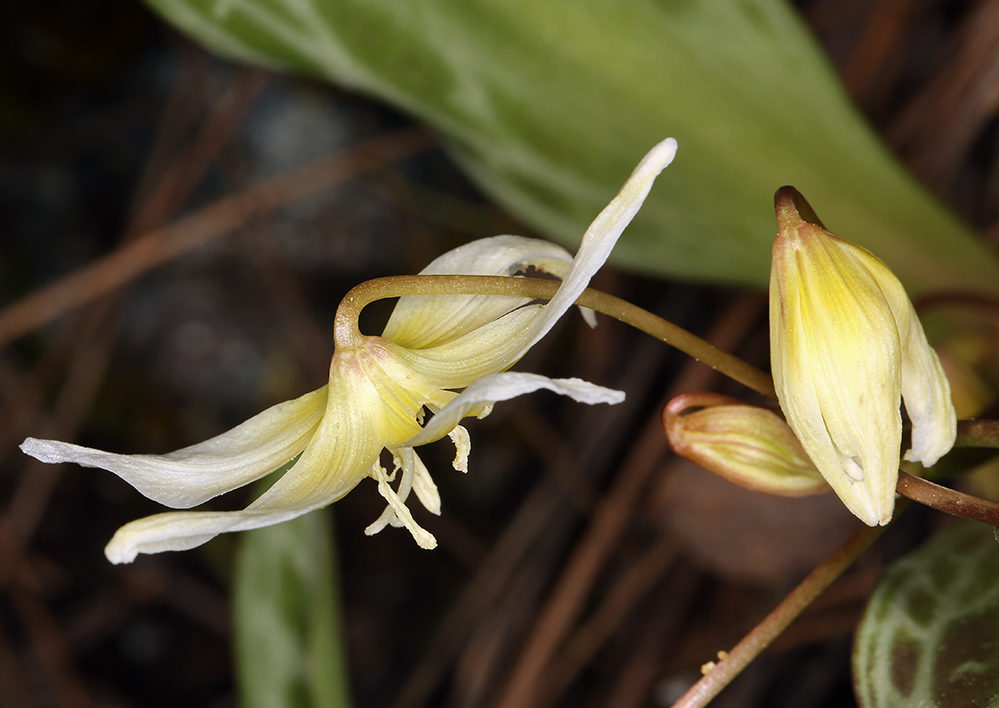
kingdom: Plantae
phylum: Tracheophyta
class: Liliopsida
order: Liliales
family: Liliaceae
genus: Erythronium
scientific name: Erythronium multiscapideum
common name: Sierra foothills fawn-lily
